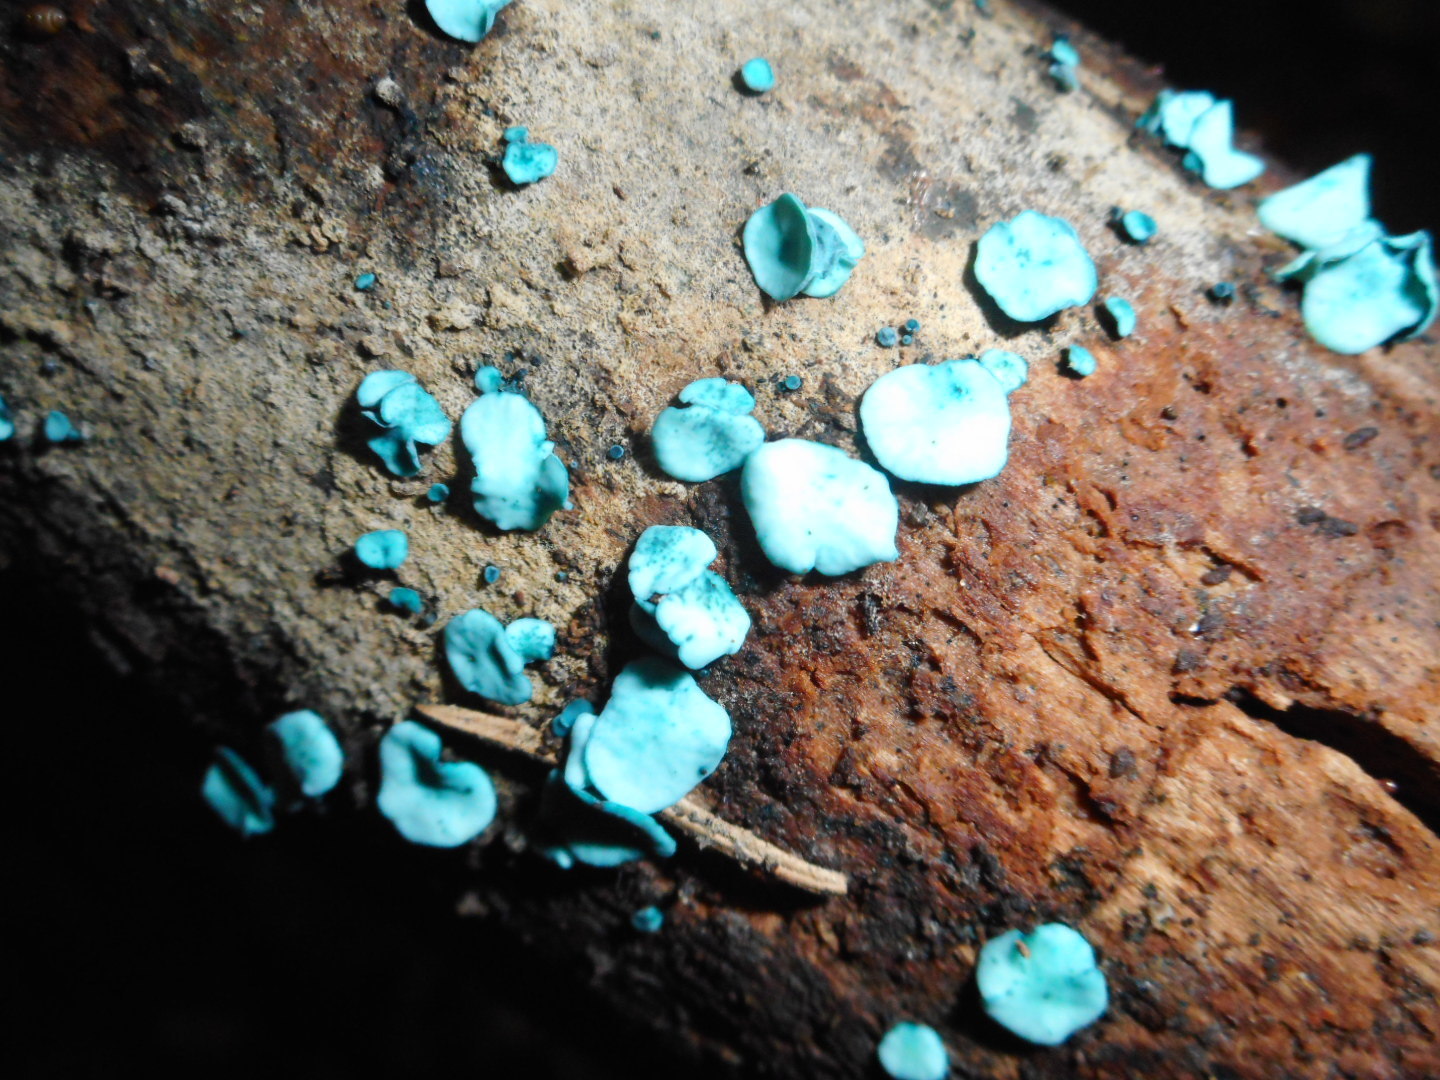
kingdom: Fungi
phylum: Ascomycota
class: Leotiomycetes
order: Helotiales
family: Chlorociboriaceae
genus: Chlorociboria
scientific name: Chlorociboria aeruginascens
